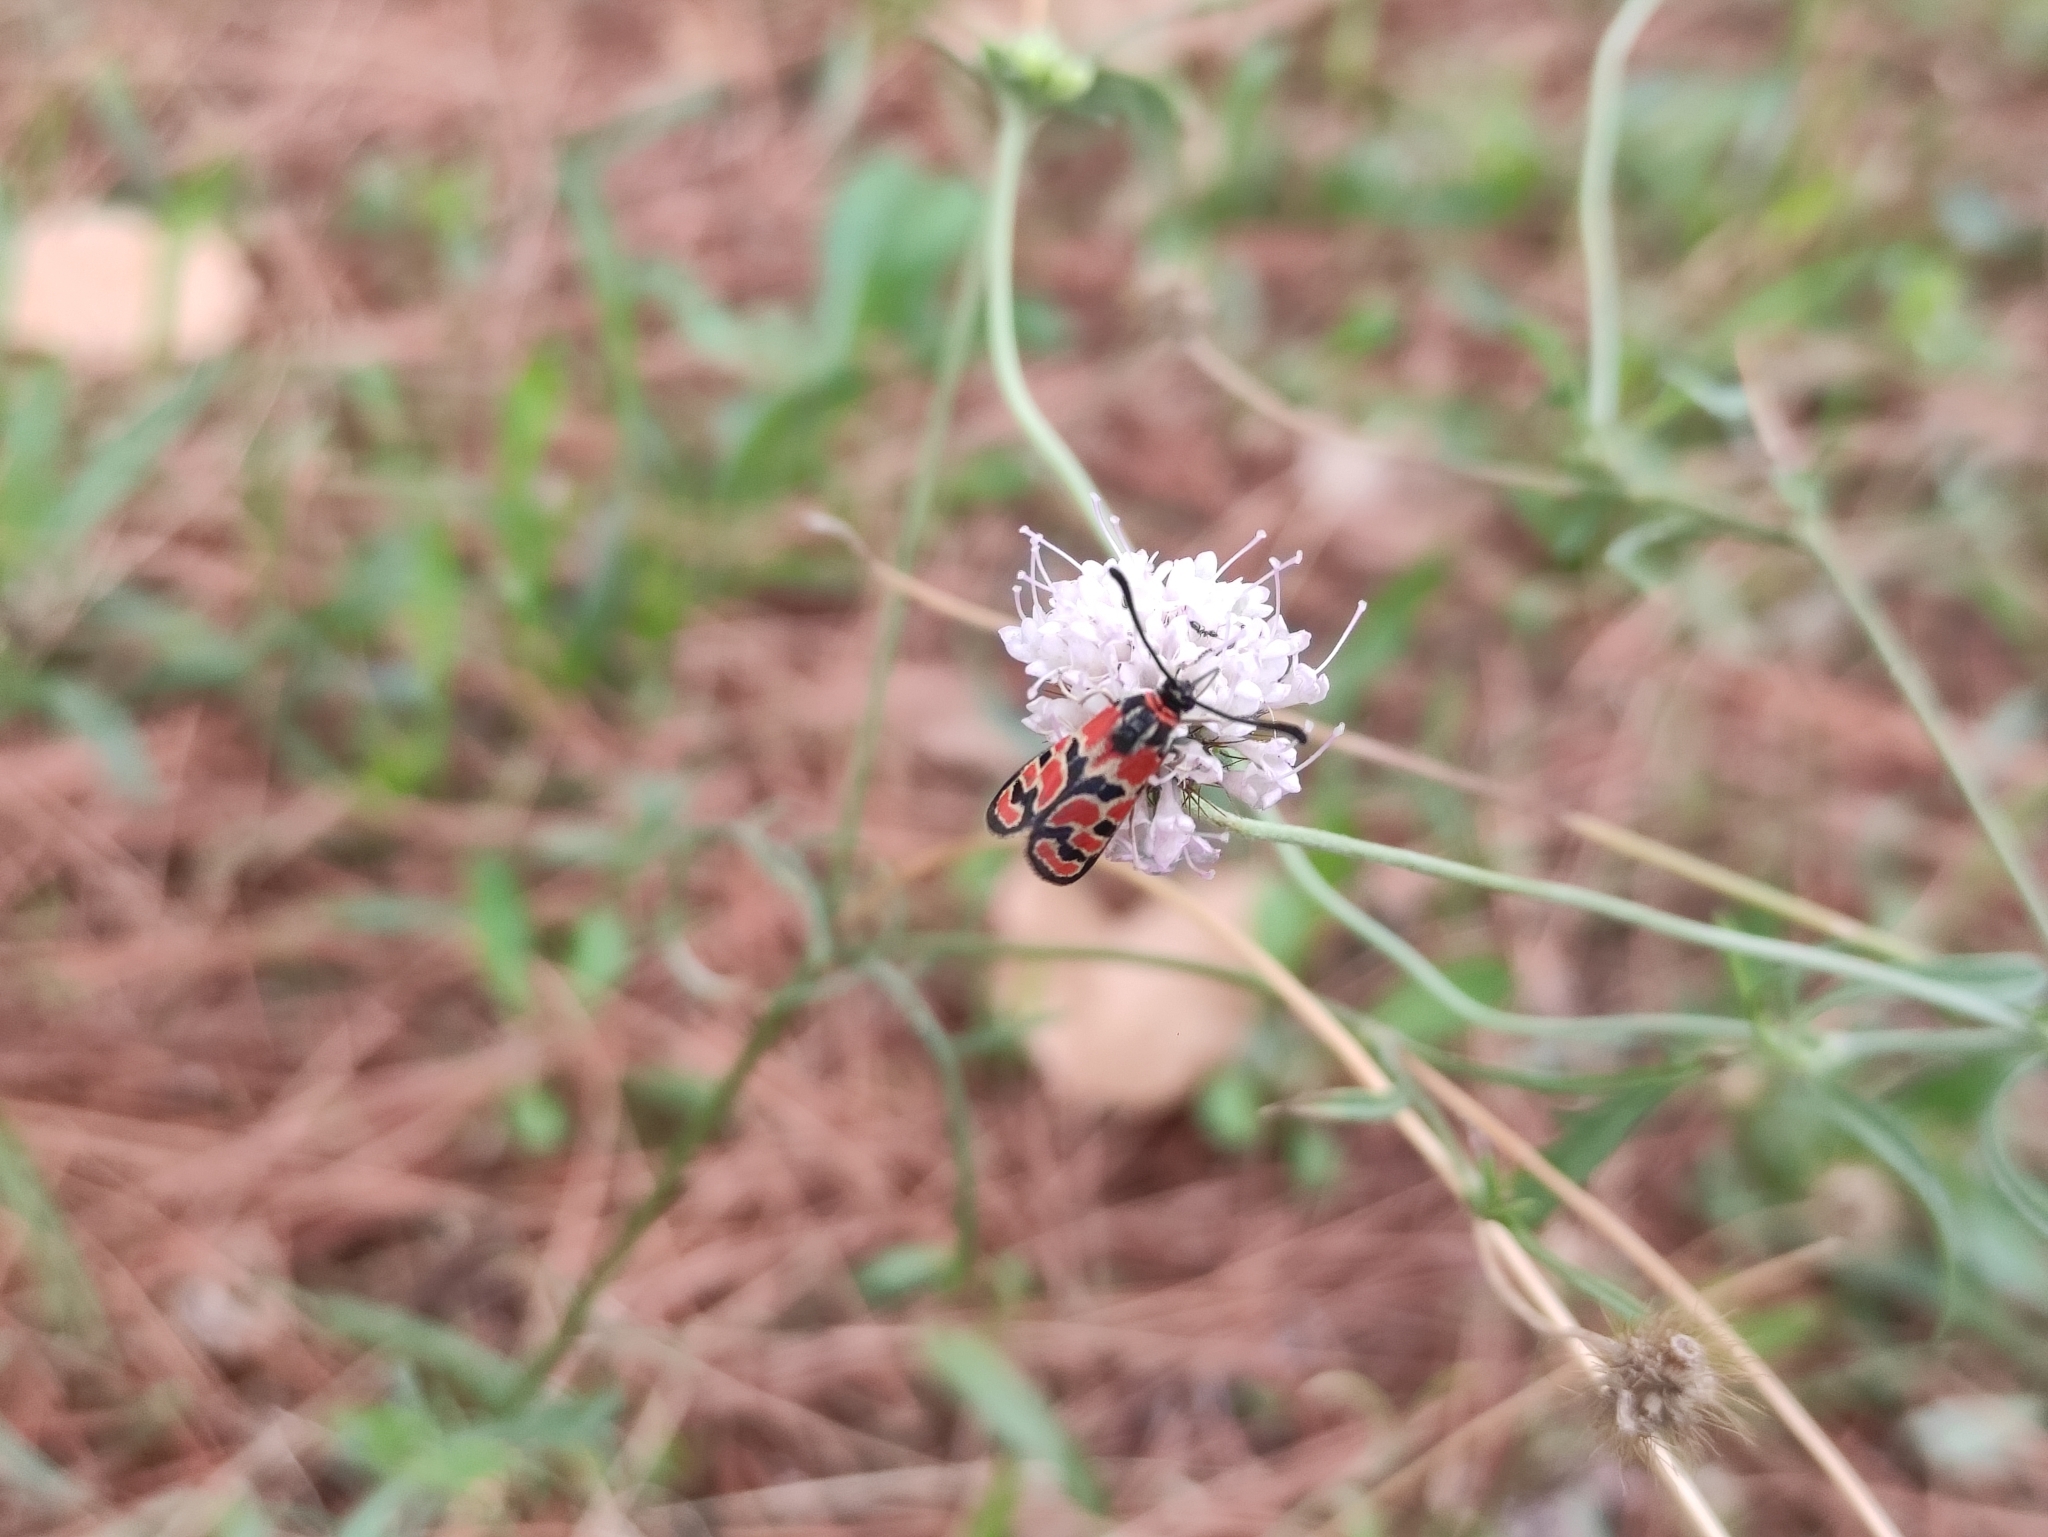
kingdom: Animalia
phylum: Arthropoda
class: Insecta
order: Lepidoptera
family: Zygaenidae
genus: Zygaena
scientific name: Zygaena fausta
